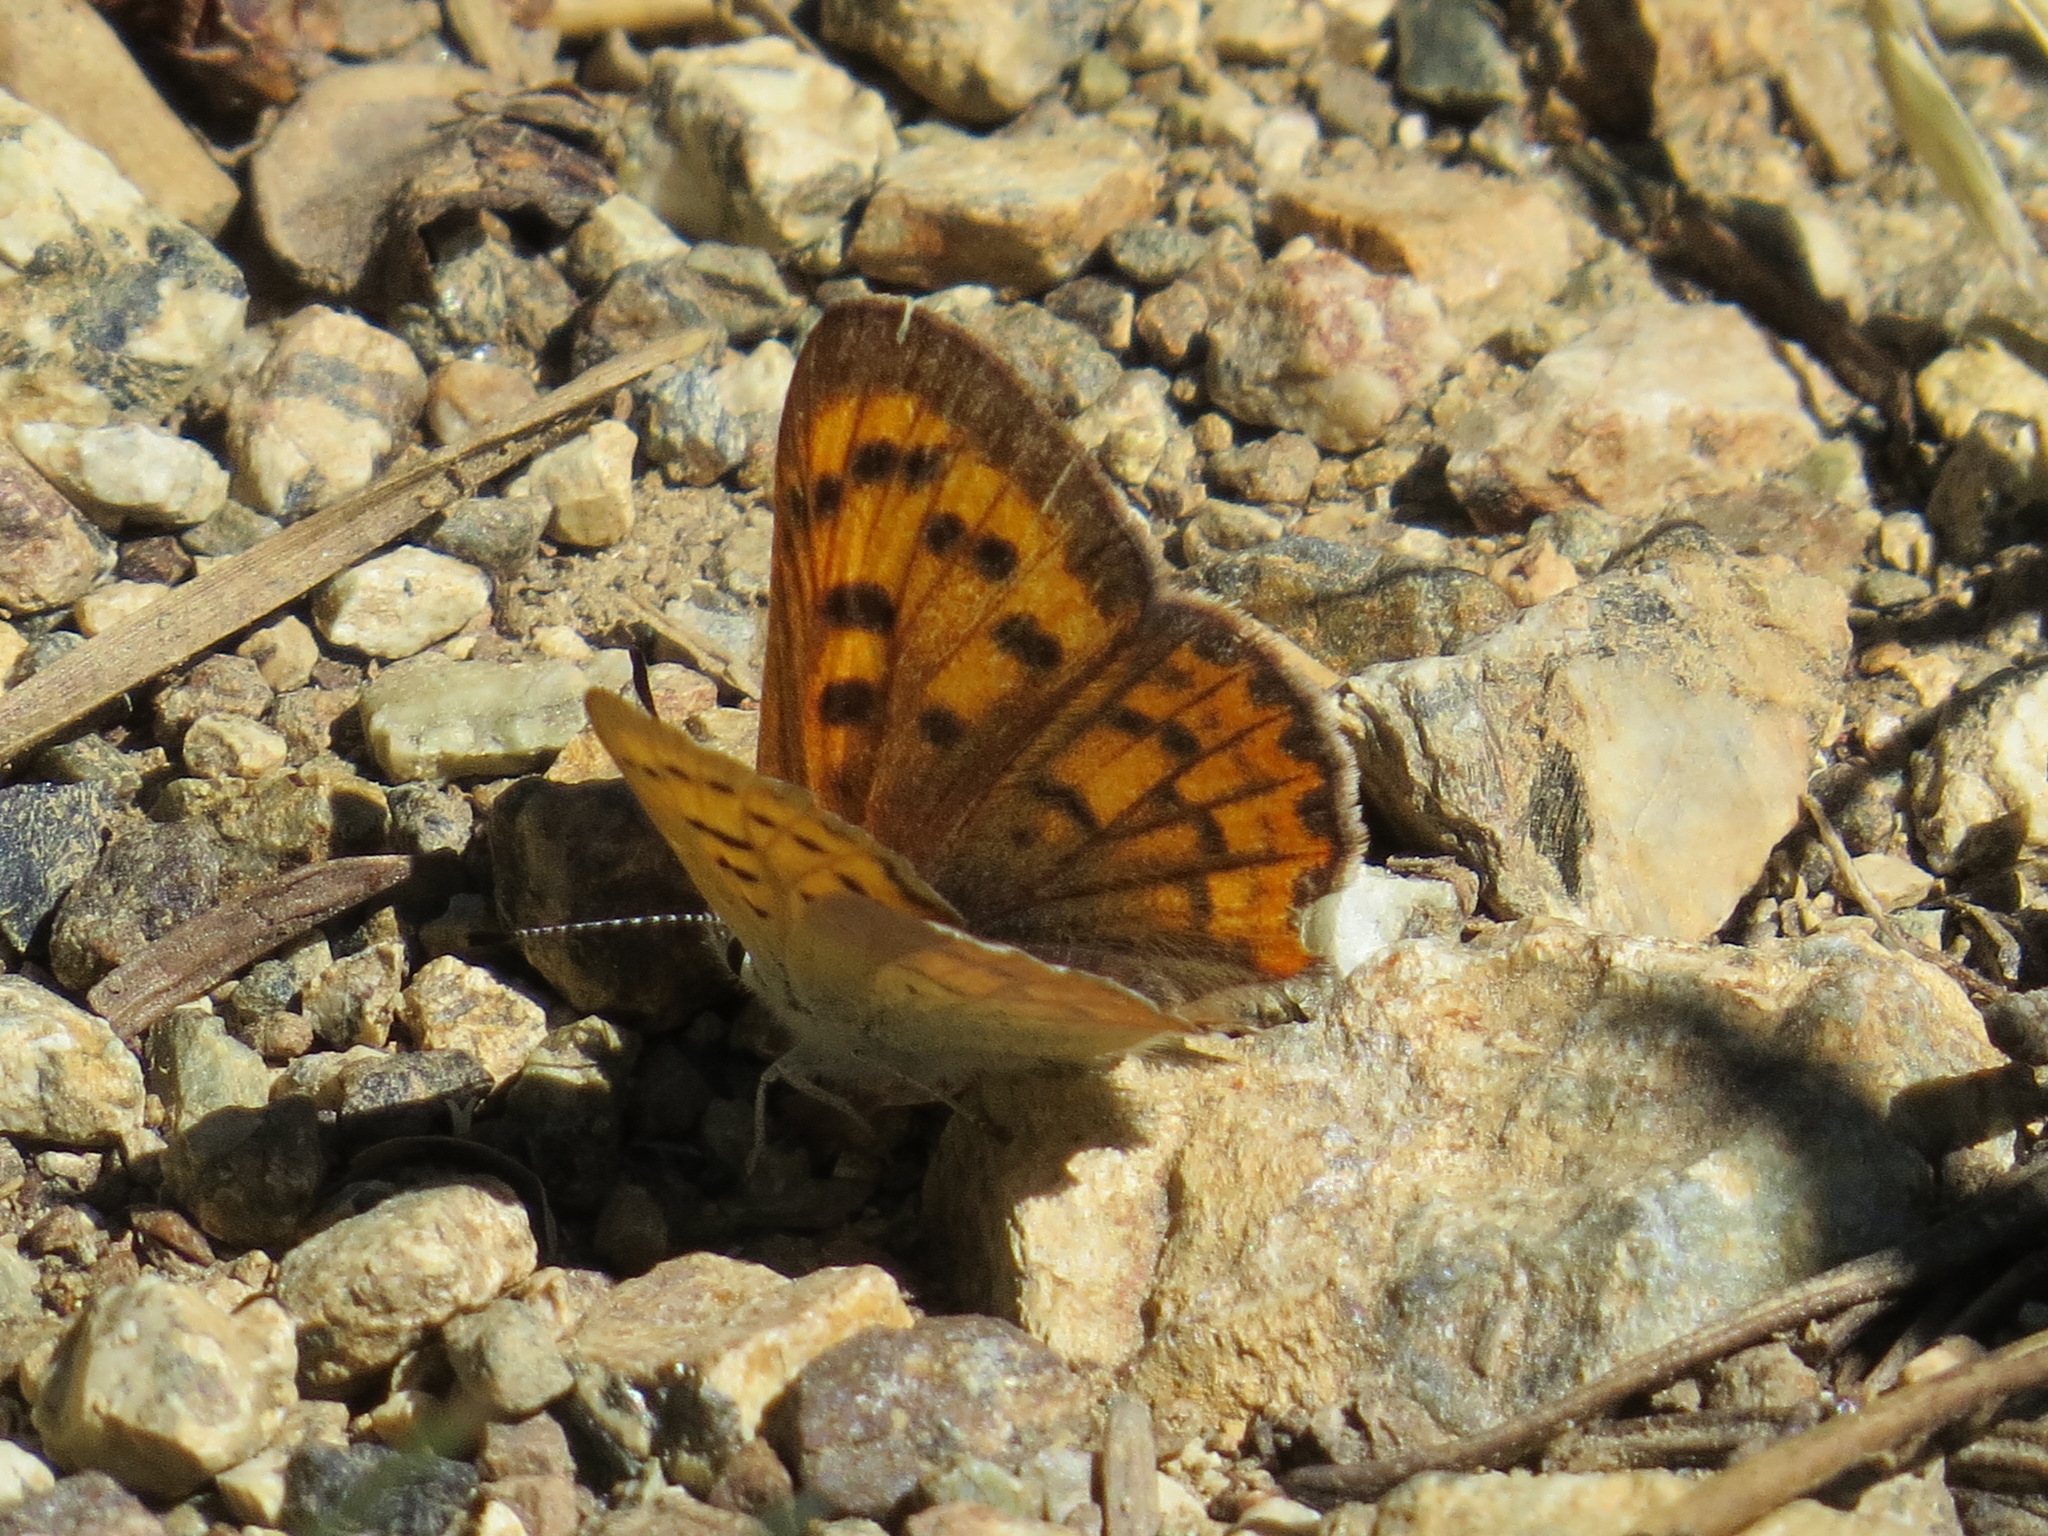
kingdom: Animalia
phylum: Arthropoda
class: Insecta
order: Lepidoptera
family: Lycaenidae
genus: Tharsalea
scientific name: Tharsalea helloides
